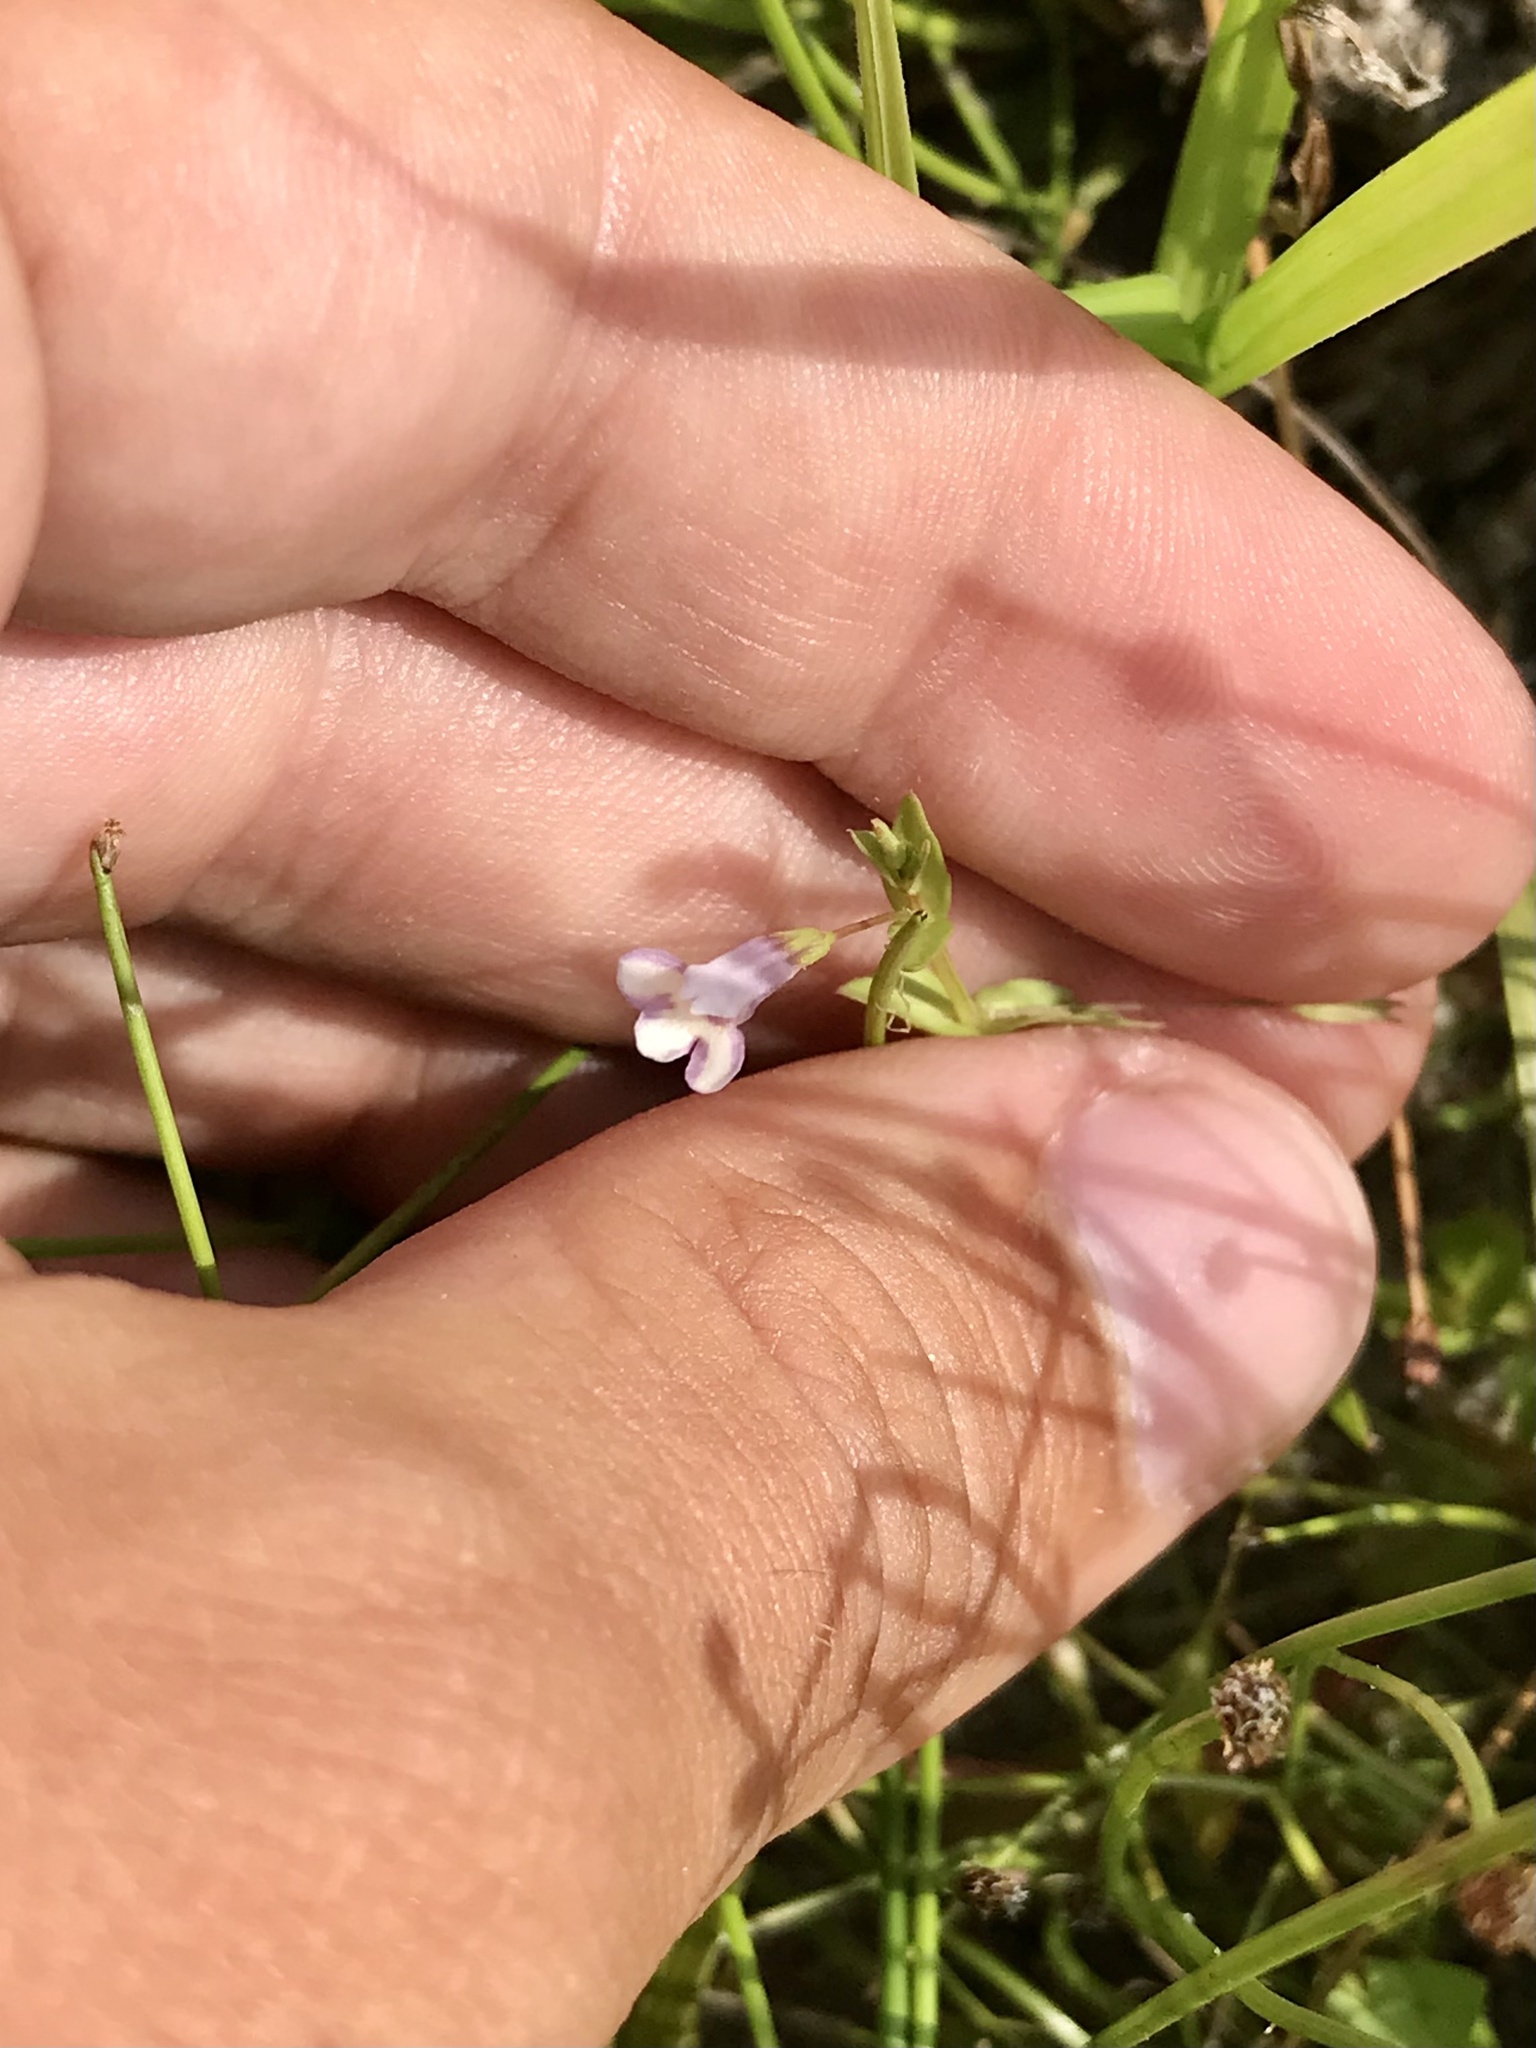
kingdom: Plantae
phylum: Tracheophyta
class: Magnoliopsida
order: Lamiales
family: Linderniaceae
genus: Lindernia
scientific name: Lindernia dubia
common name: Annual false pimpernel
